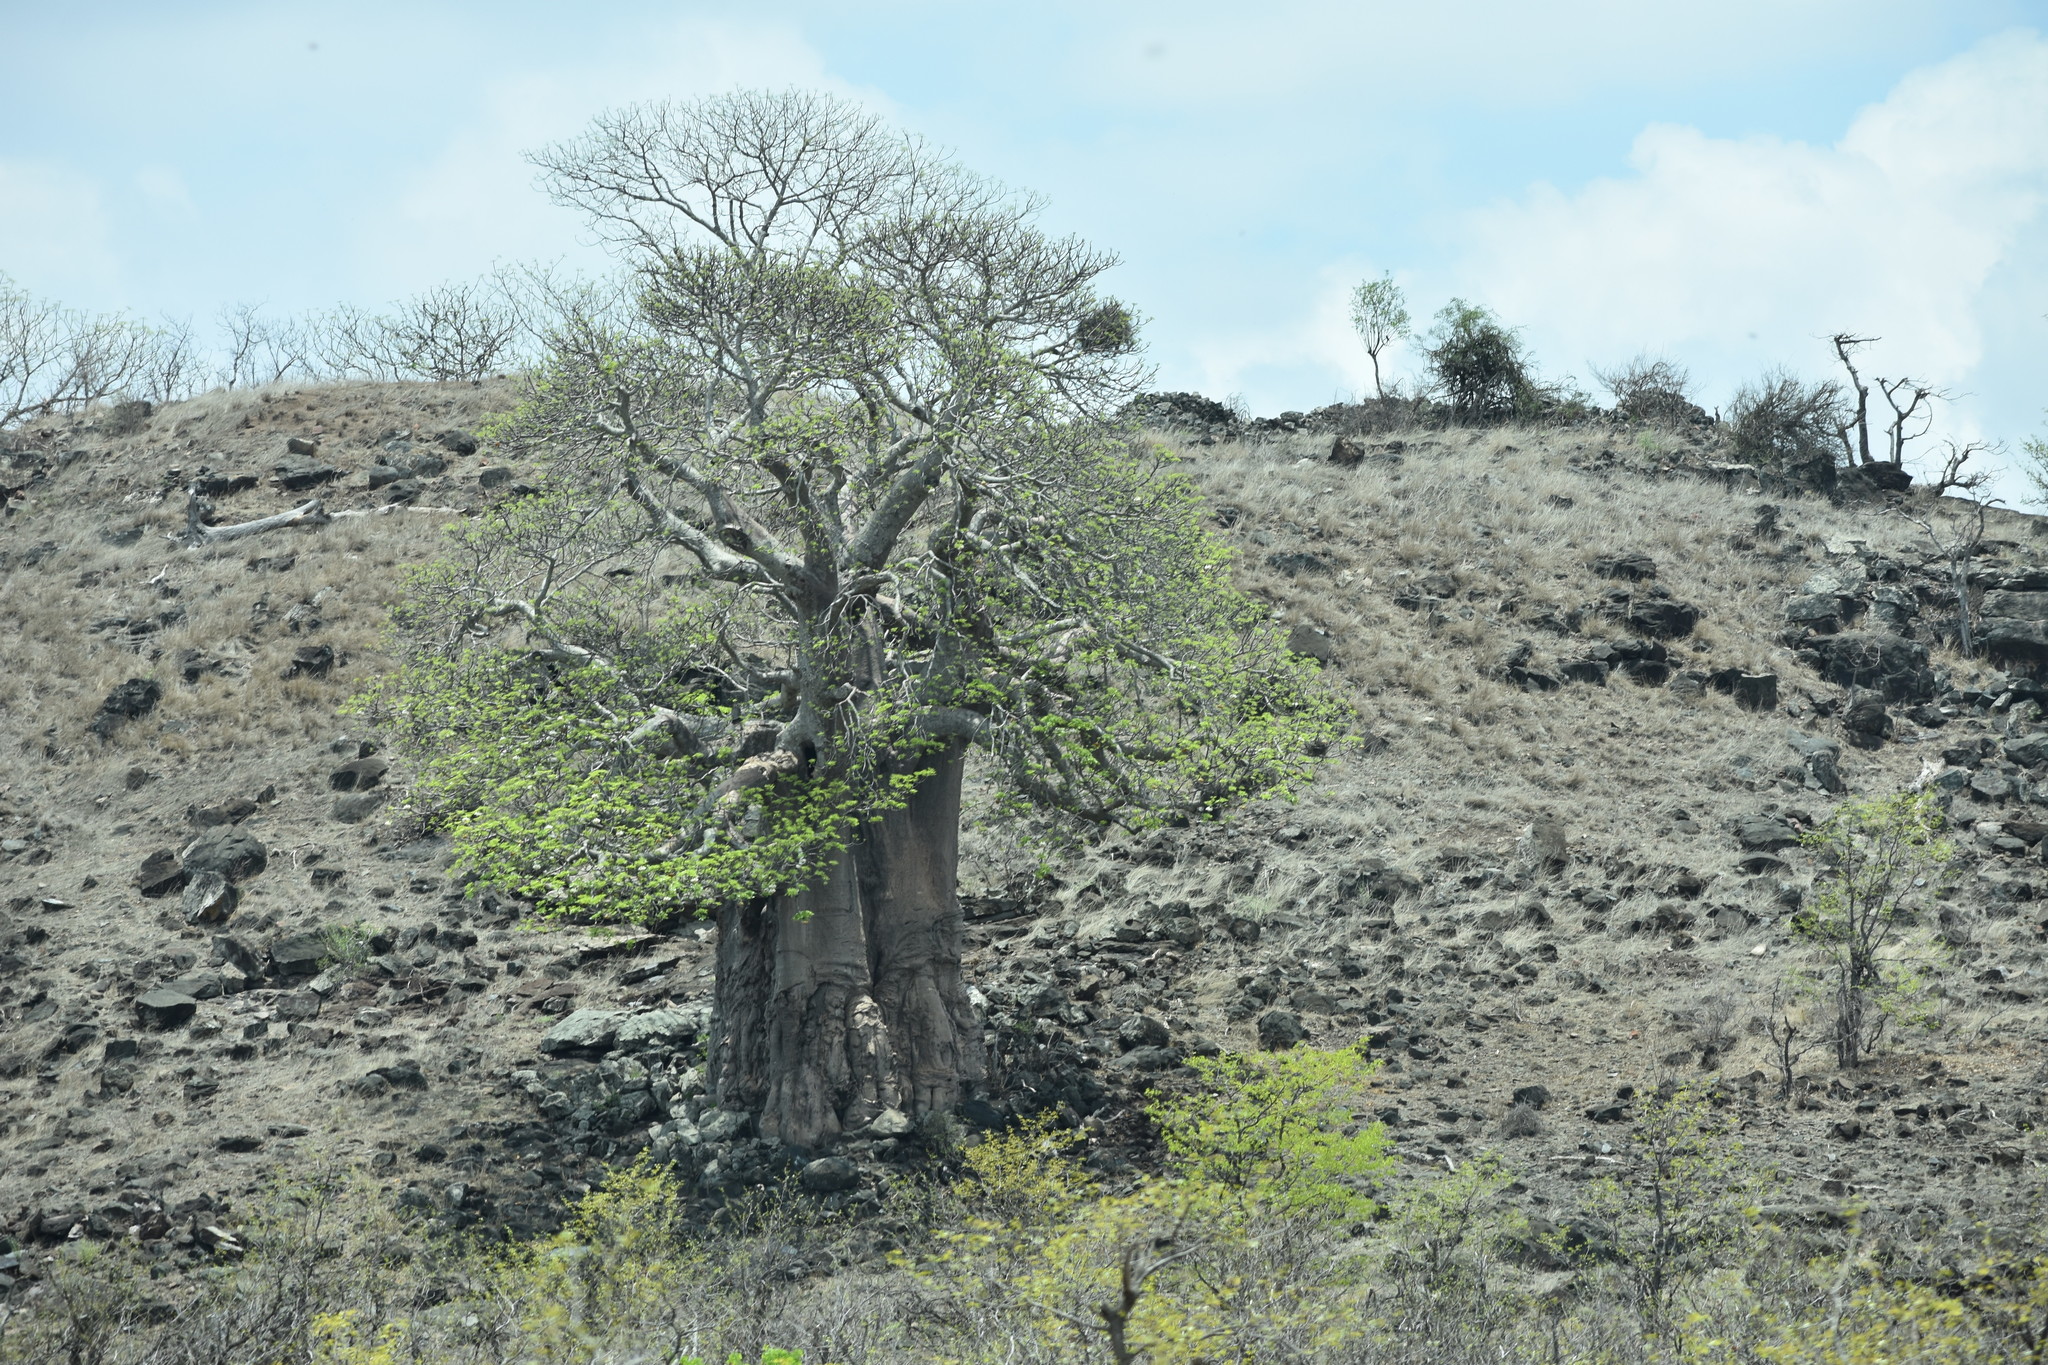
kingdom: Plantae
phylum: Tracheophyta
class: Magnoliopsida
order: Malvales
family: Malvaceae
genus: Adansonia
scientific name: Adansonia digitata
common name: Dead-rat-tree
